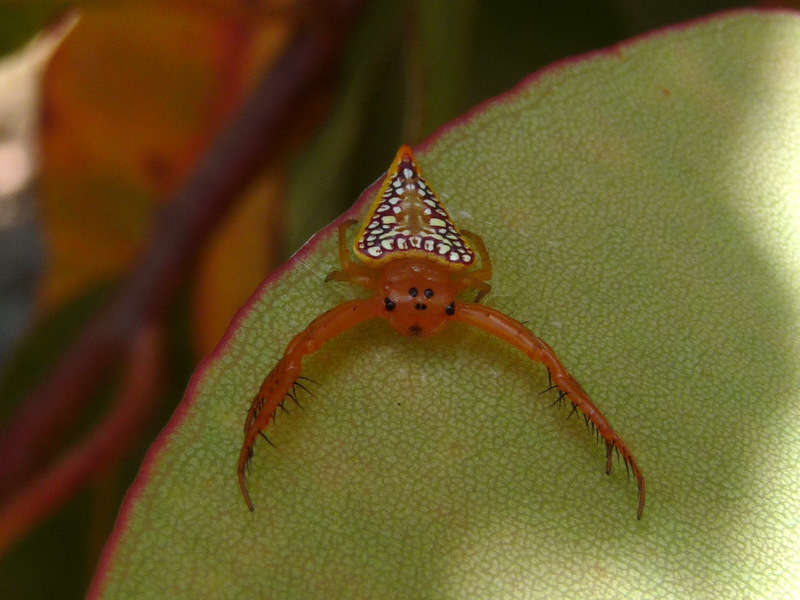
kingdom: Animalia
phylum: Arthropoda
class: Arachnida
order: Araneae
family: Arkyidae
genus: Arkys
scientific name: Arkys walckenaeri
